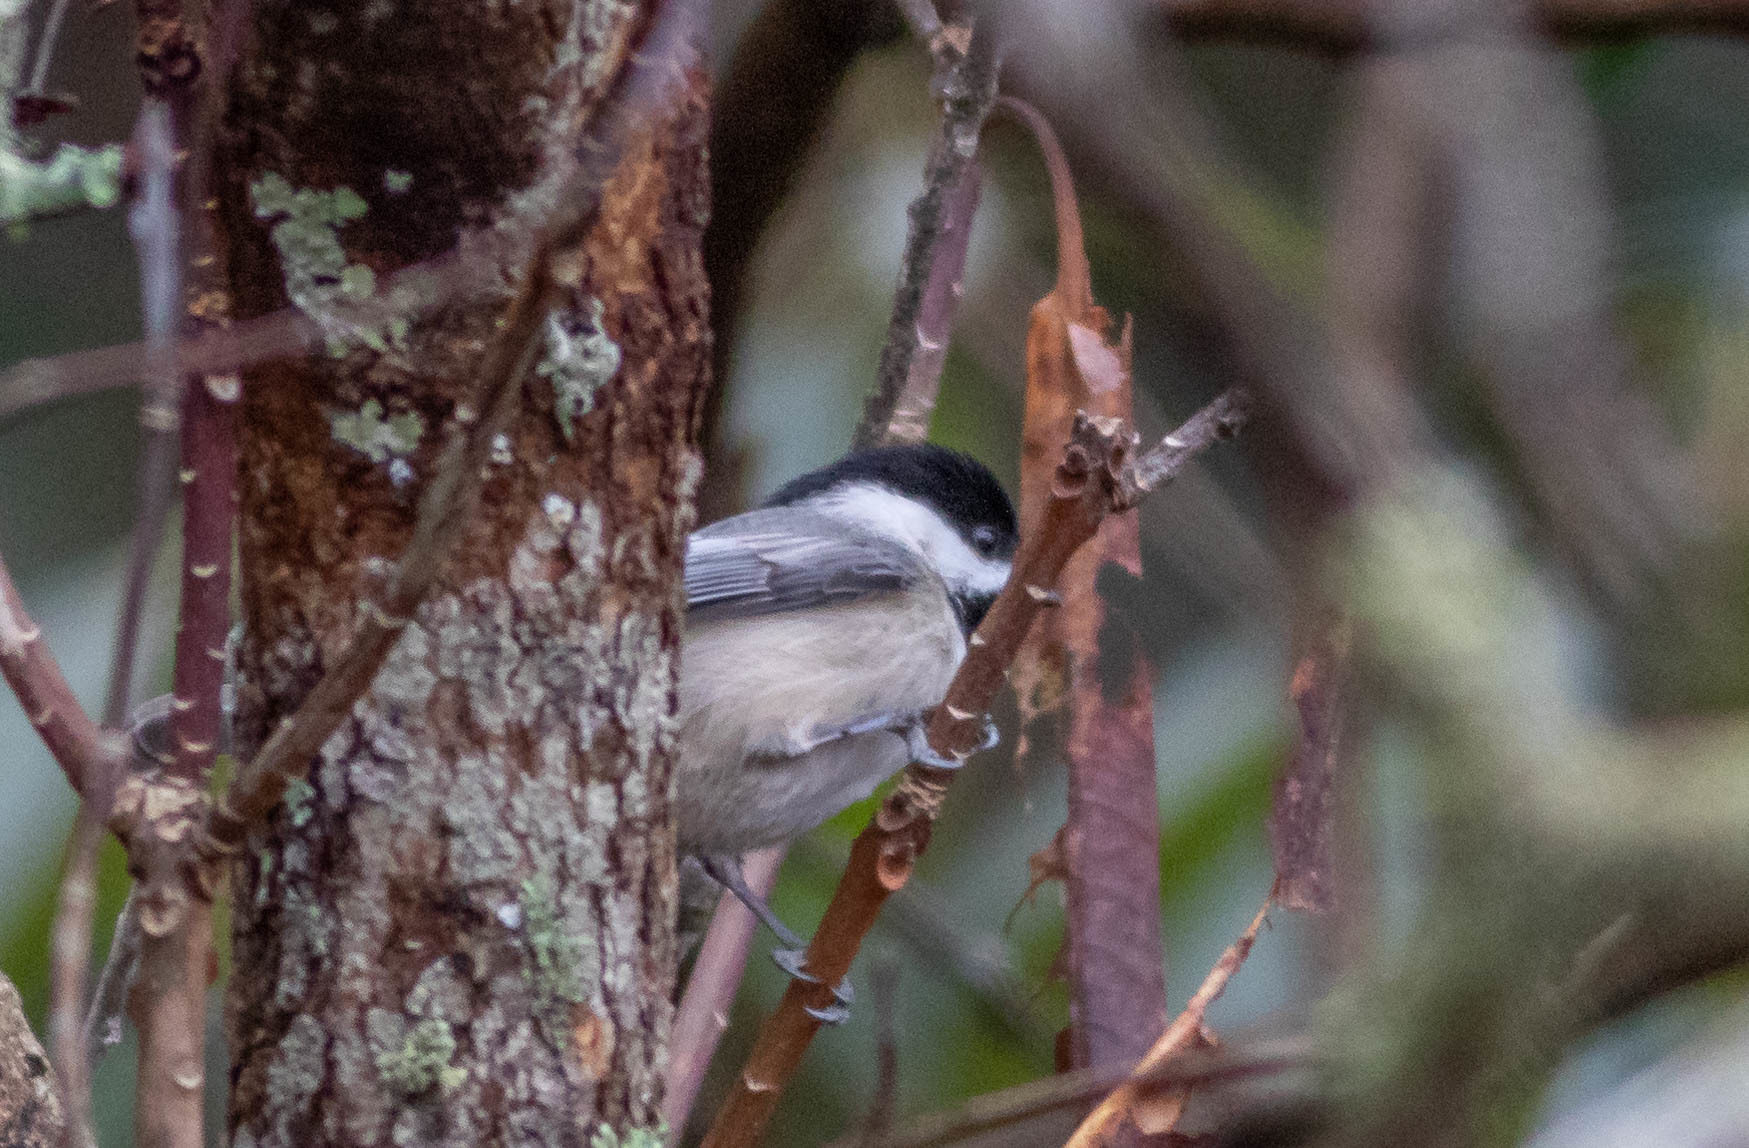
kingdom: Animalia
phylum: Chordata
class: Aves
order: Passeriformes
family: Paridae
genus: Poecile
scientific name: Poecile carolinensis
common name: Carolina chickadee
